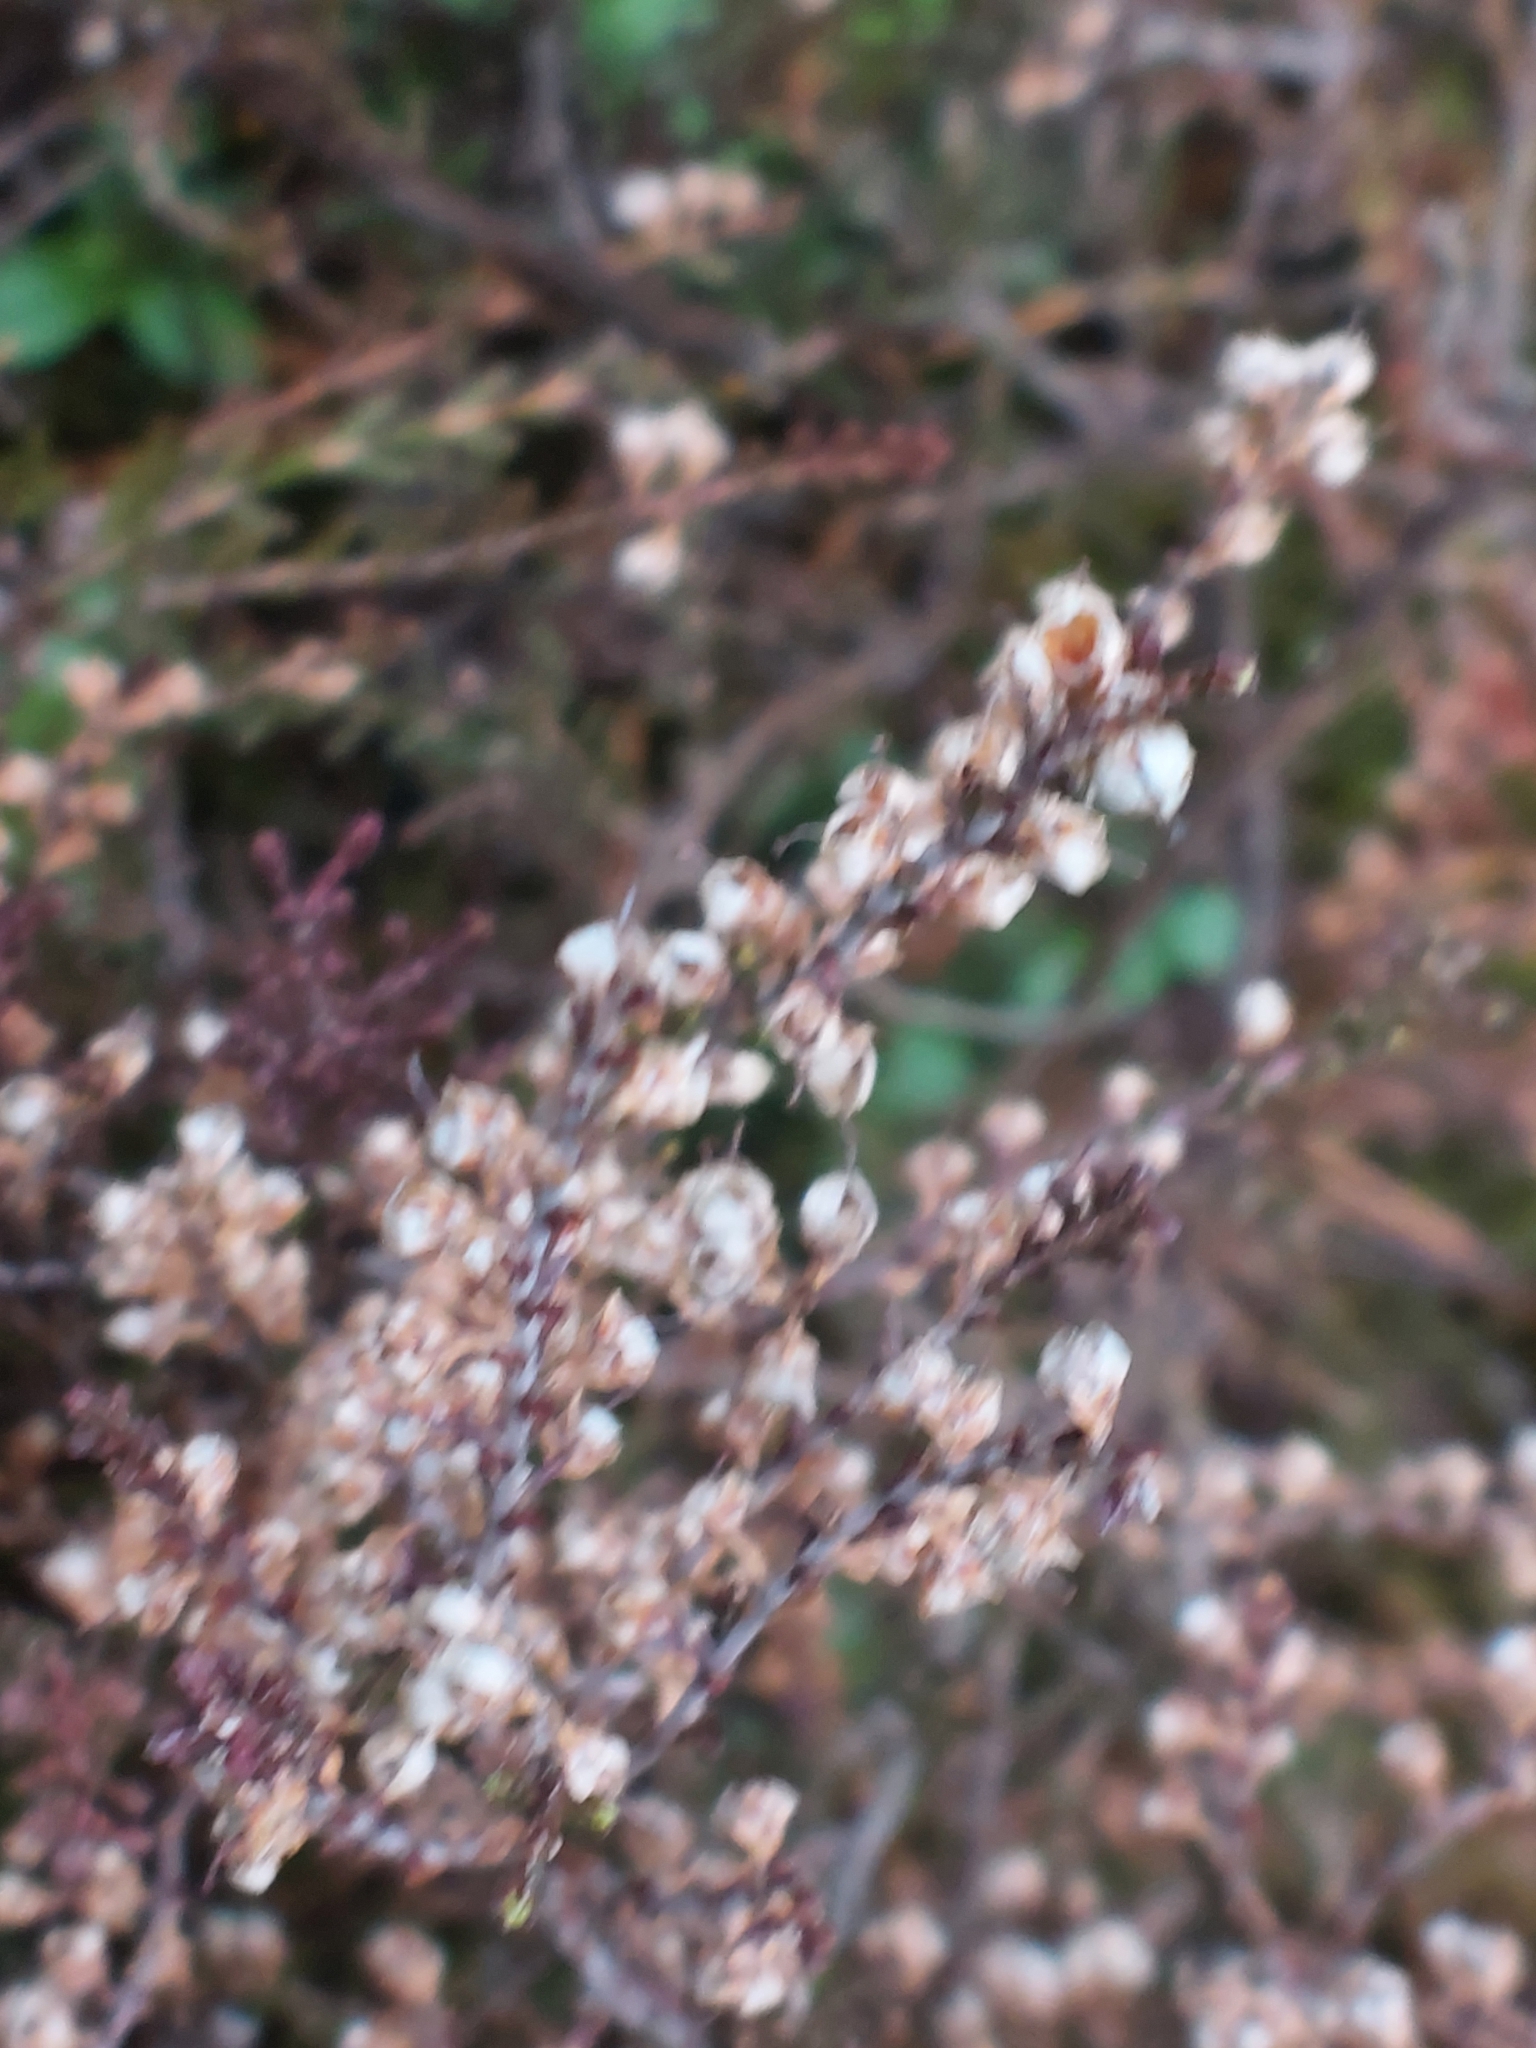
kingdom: Plantae
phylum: Tracheophyta
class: Magnoliopsida
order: Ericales
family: Ericaceae
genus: Calluna
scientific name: Calluna vulgaris
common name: Heather
